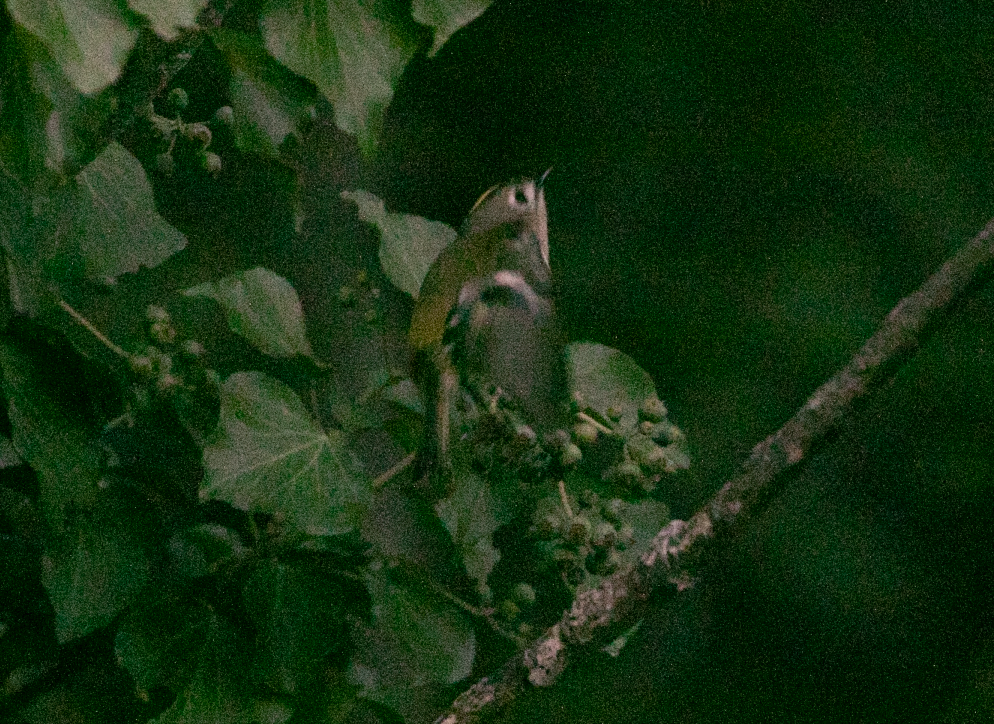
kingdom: Animalia
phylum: Chordata
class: Aves
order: Passeriformes
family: Regulidae
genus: Regulus
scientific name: Regulus regulus
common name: Goldcrest
